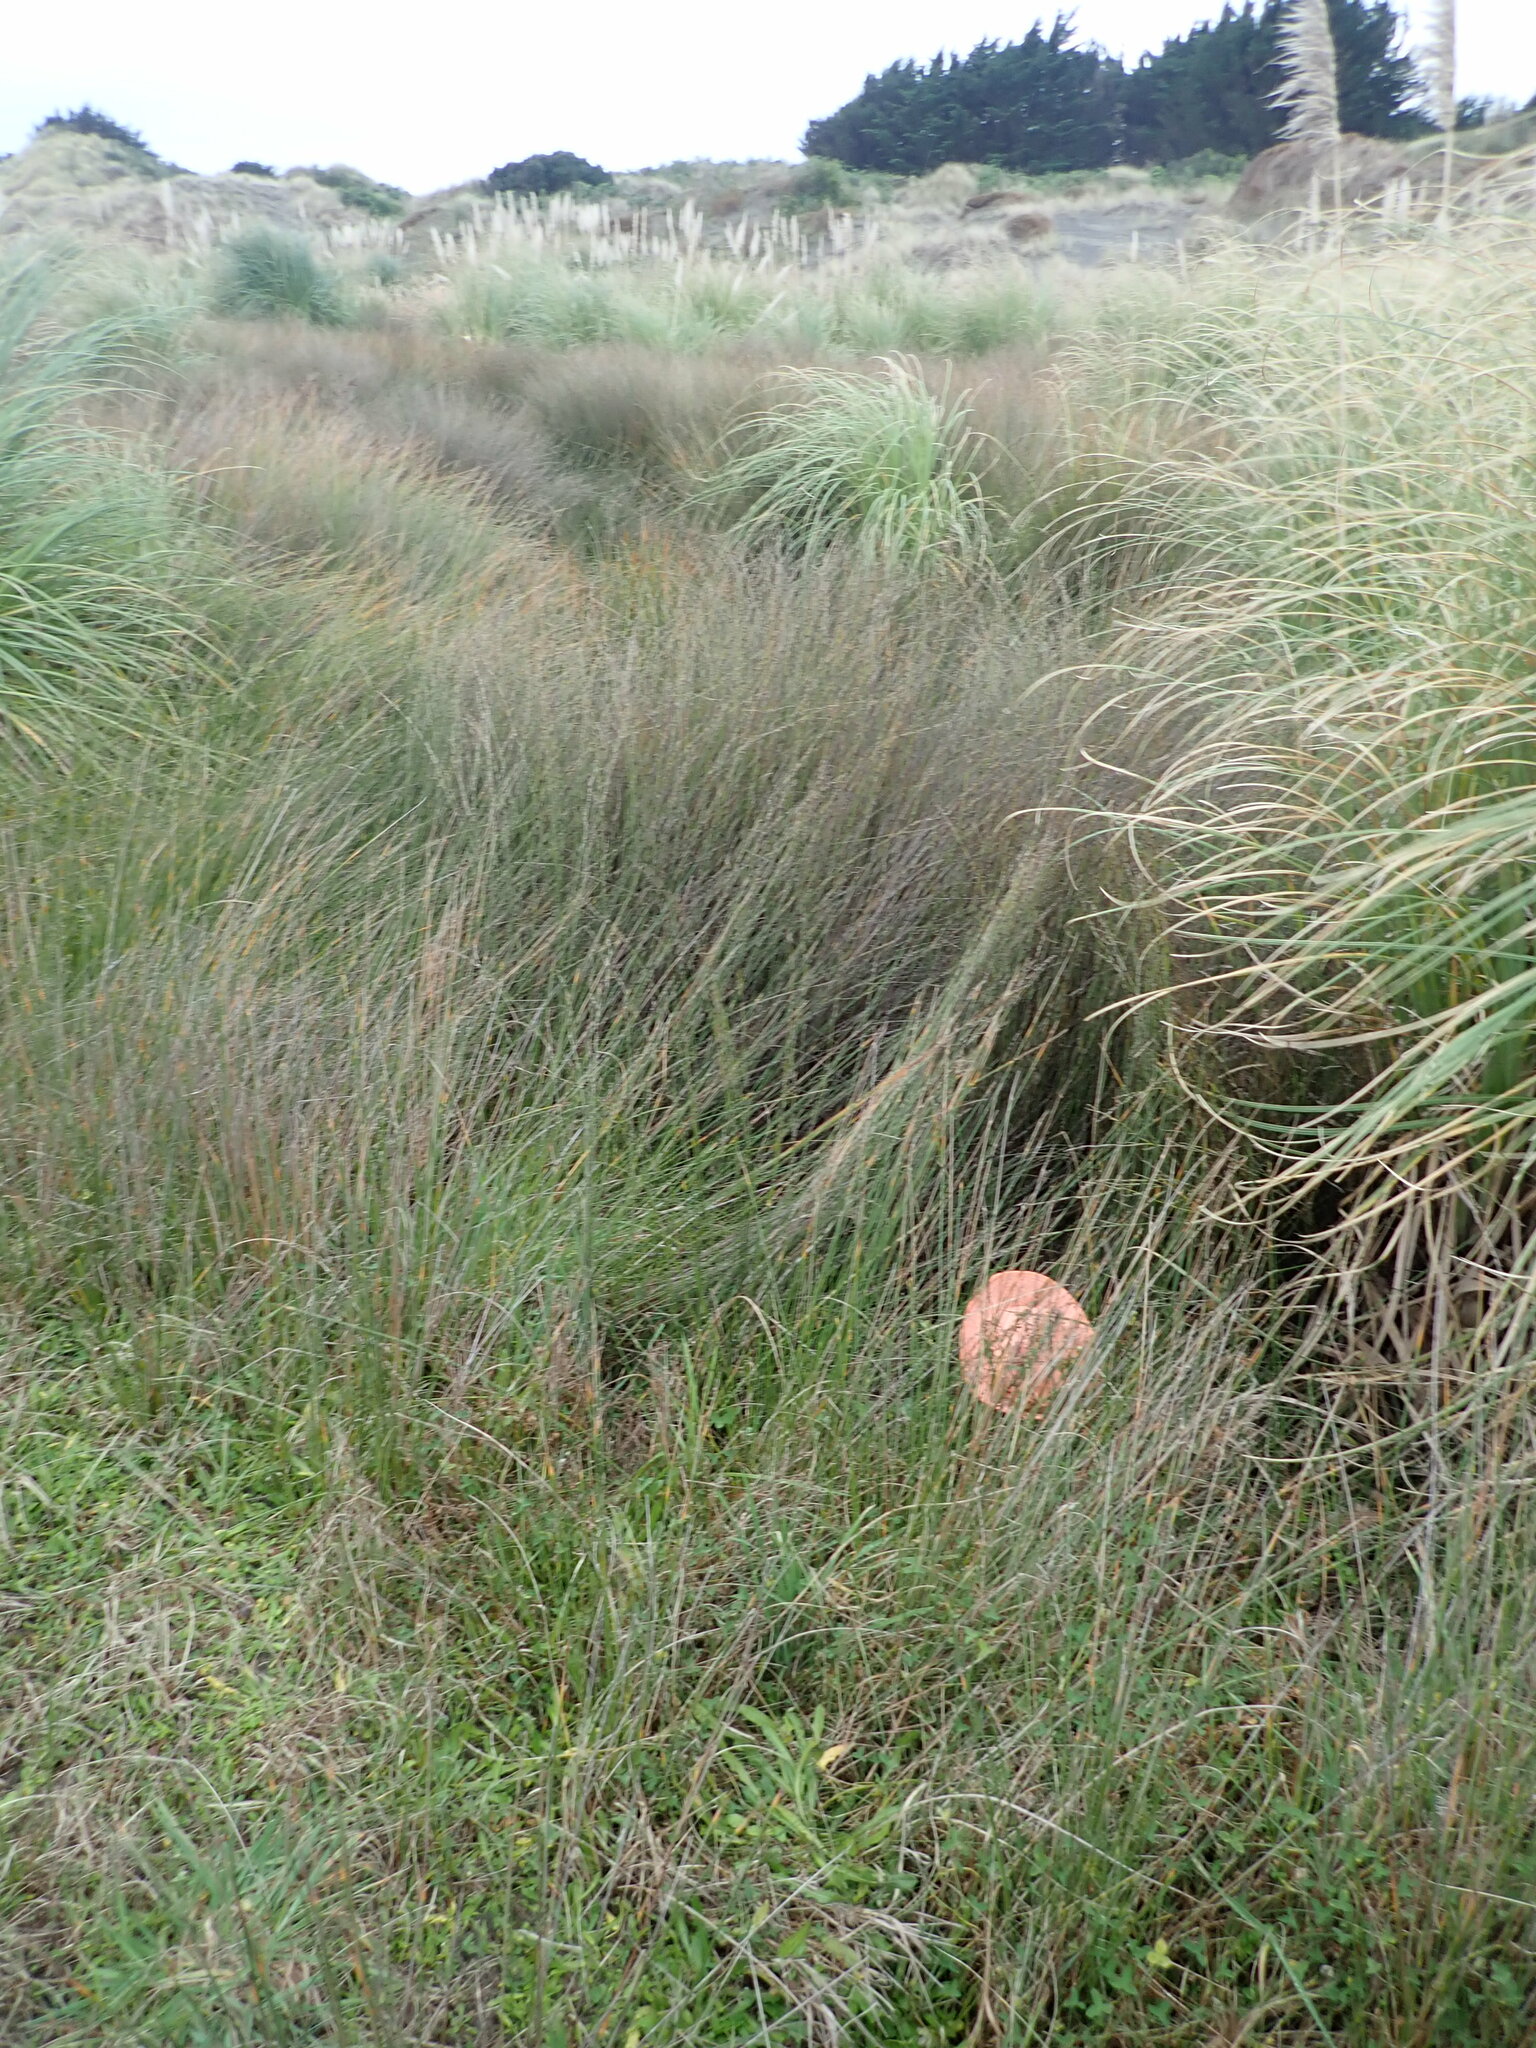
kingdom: Plantae
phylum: Tracheophyta
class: Magnoliopsida
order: Myrtales
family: Onagraceae
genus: Epilobium
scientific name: Epilobium billardiereanum
